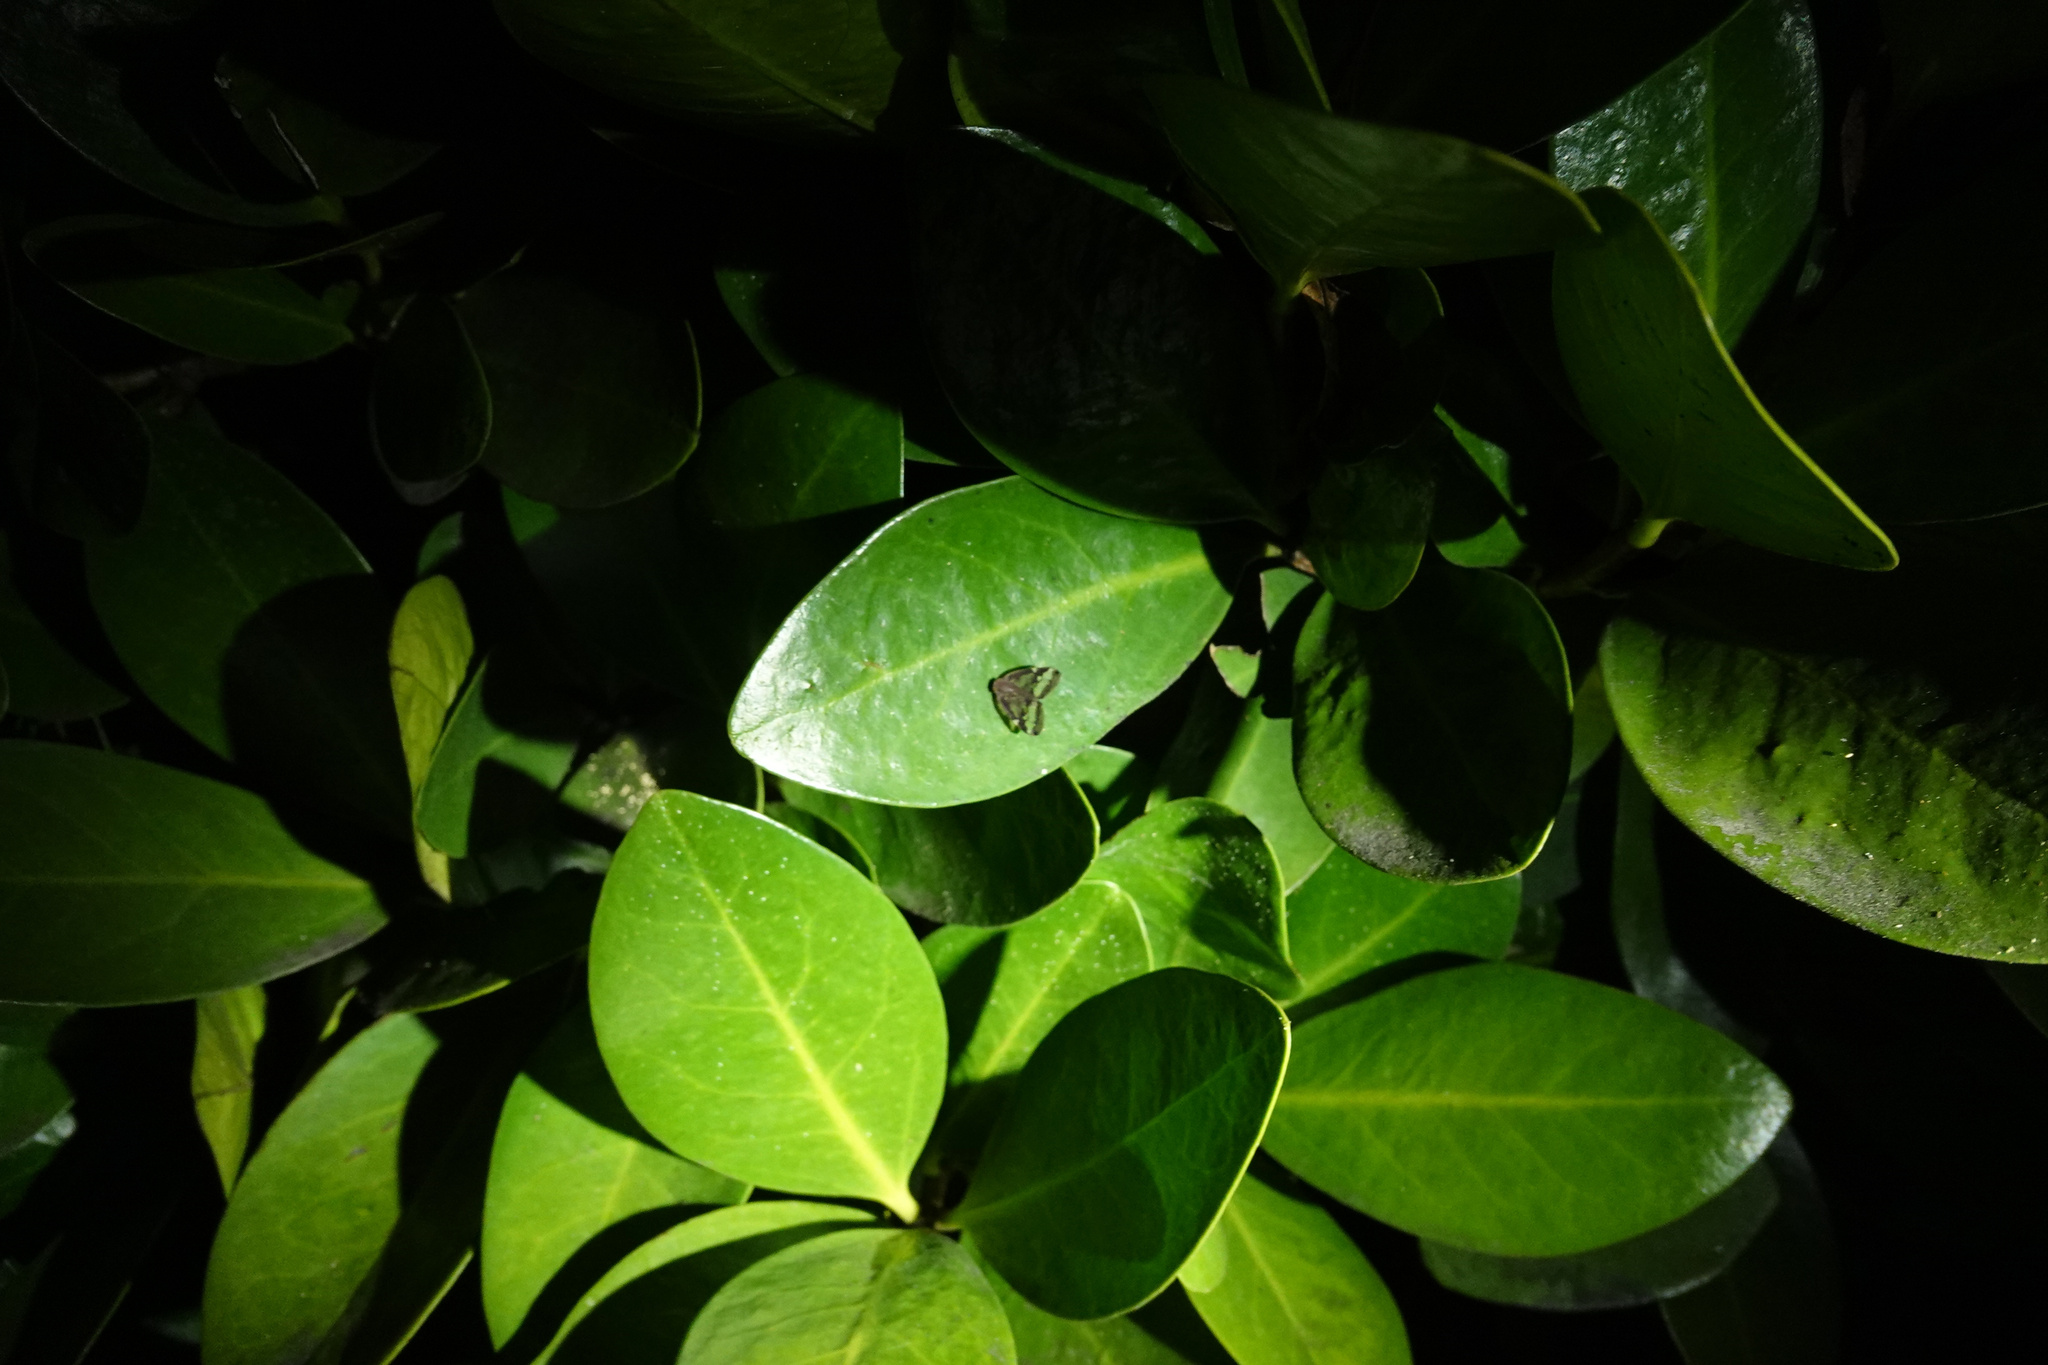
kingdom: Animalia
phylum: Arthropoda
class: Insecta
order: Hemiptera
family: Ricaniidae
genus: Scolypopa
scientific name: Scolypopa australis
